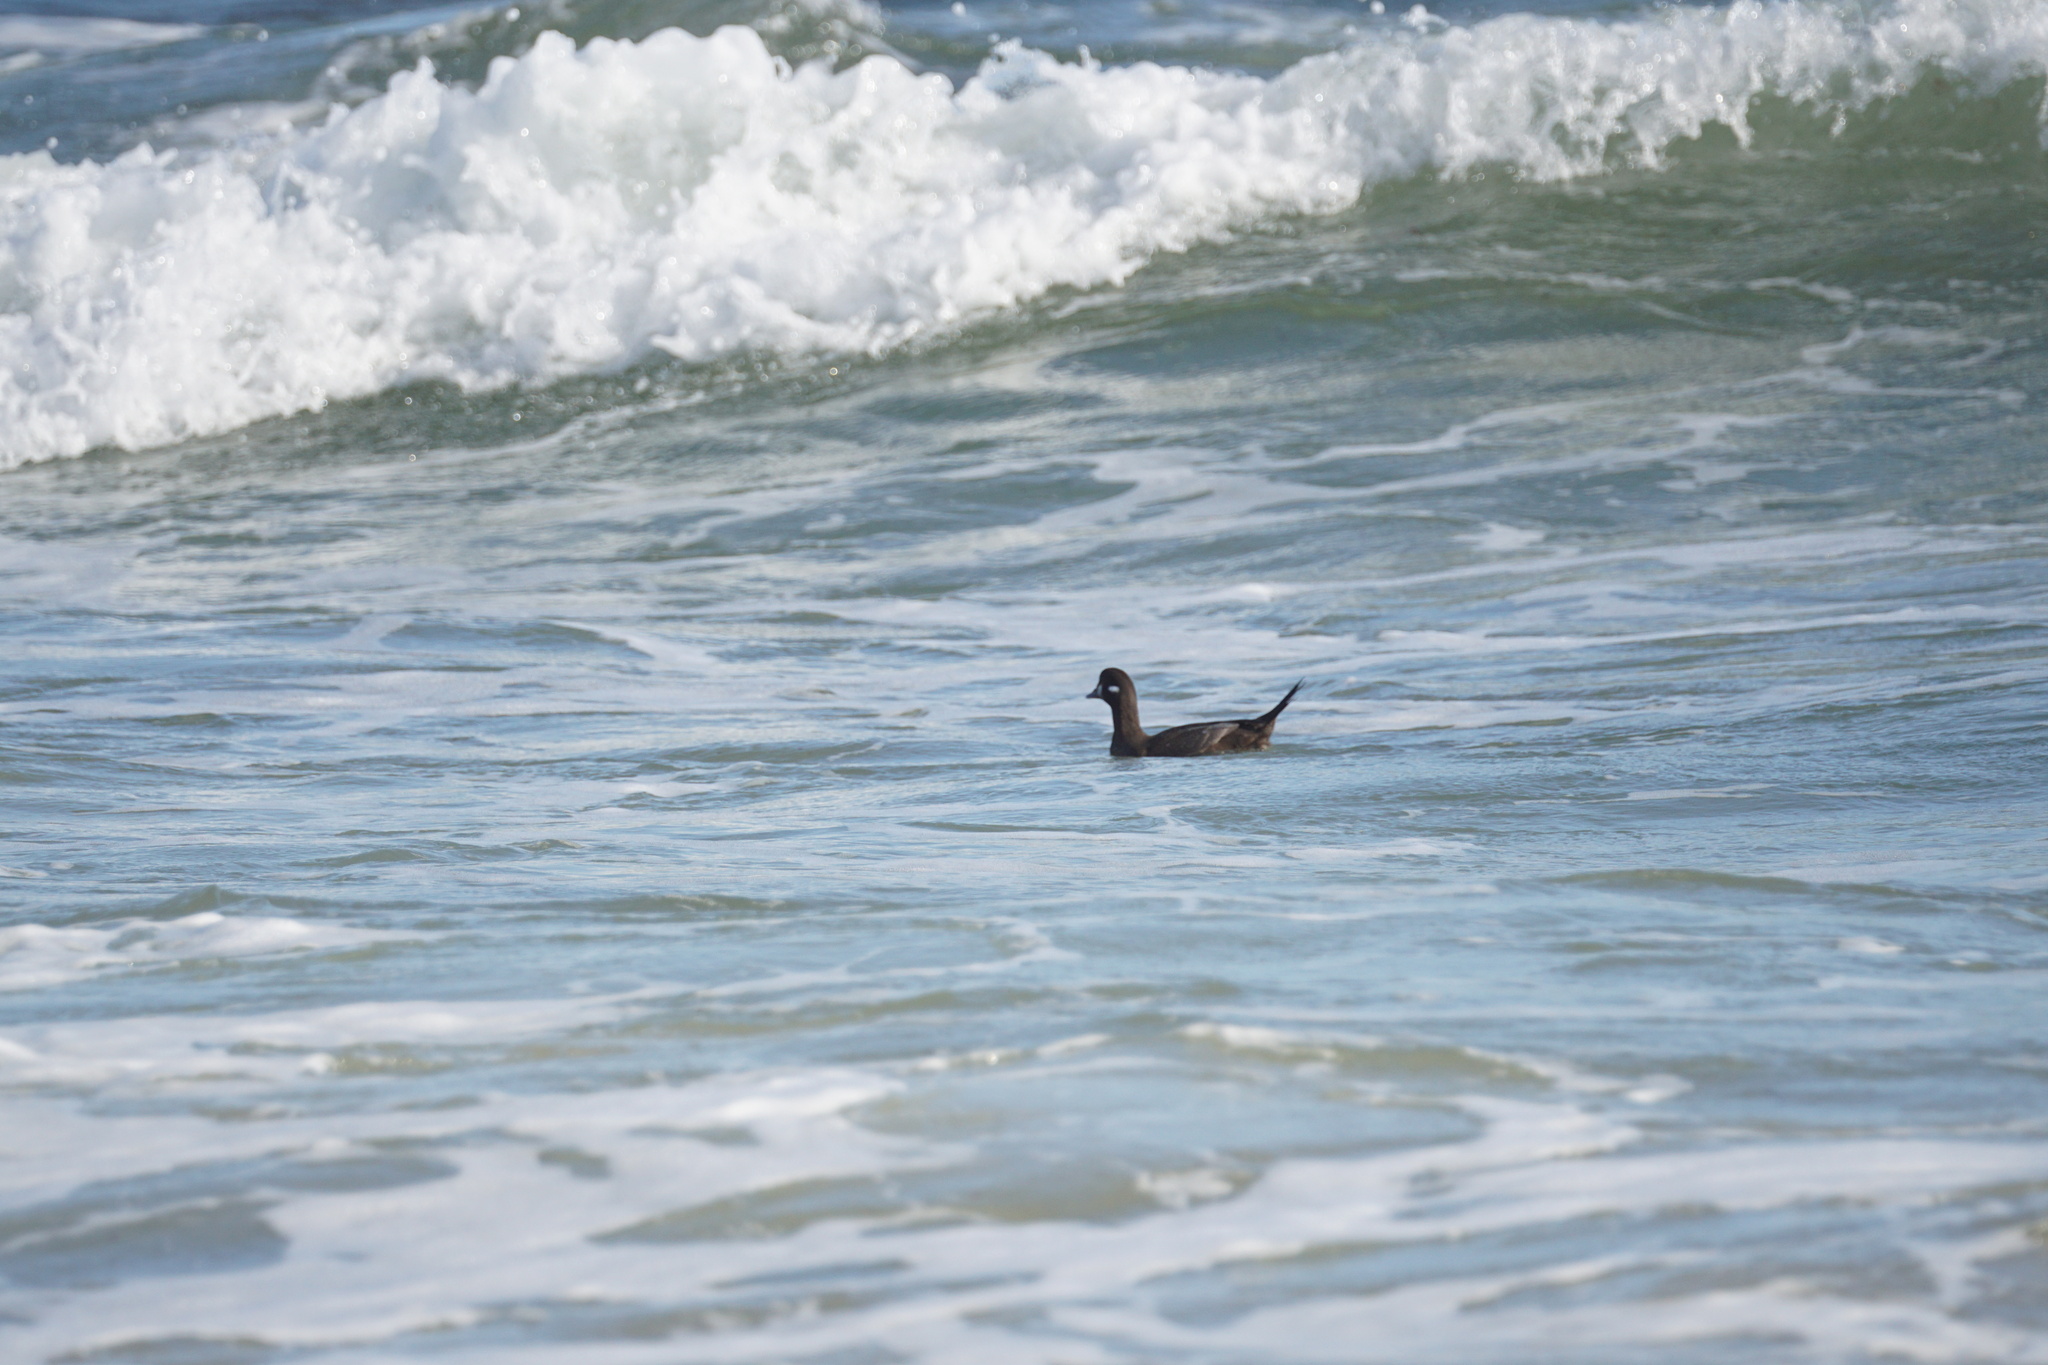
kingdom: Animalia
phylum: Chordata
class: Aves
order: Anseriformes
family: Anatidae
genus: Histrionicus
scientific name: Histrionicus histrionicus
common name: Harlequin duck
